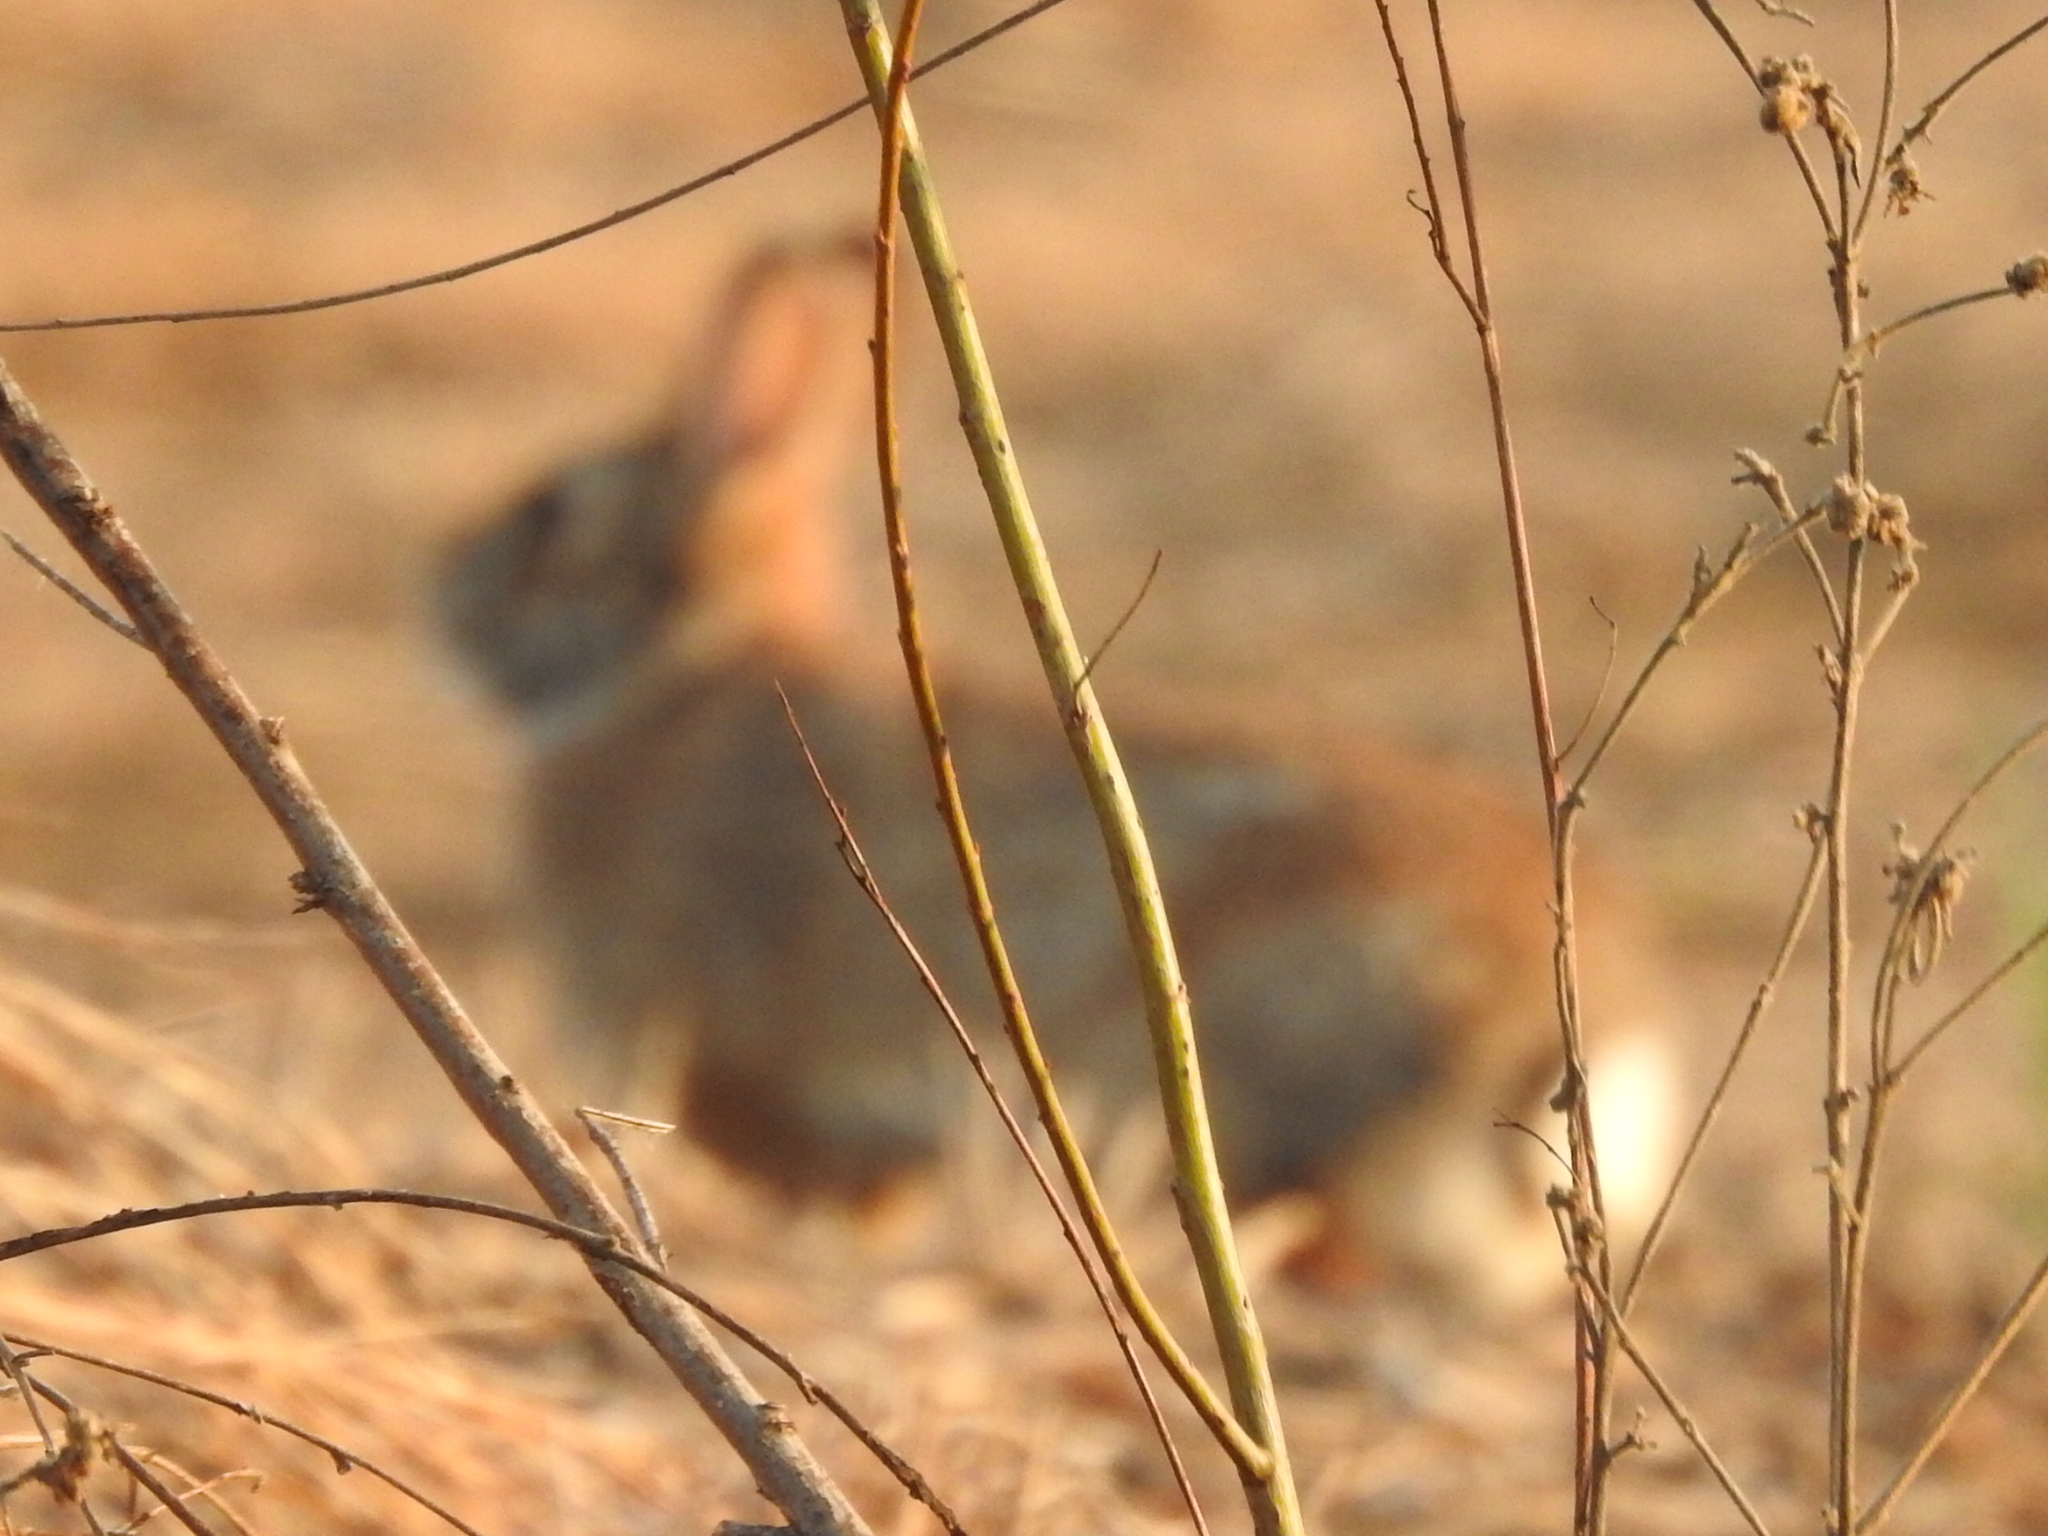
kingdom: Animalia
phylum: Chordata
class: Mammalia
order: Lagomorpha
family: Leporidae
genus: Sylvilagus
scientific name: Sylvilagus floridanus
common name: Eastern cottontail
